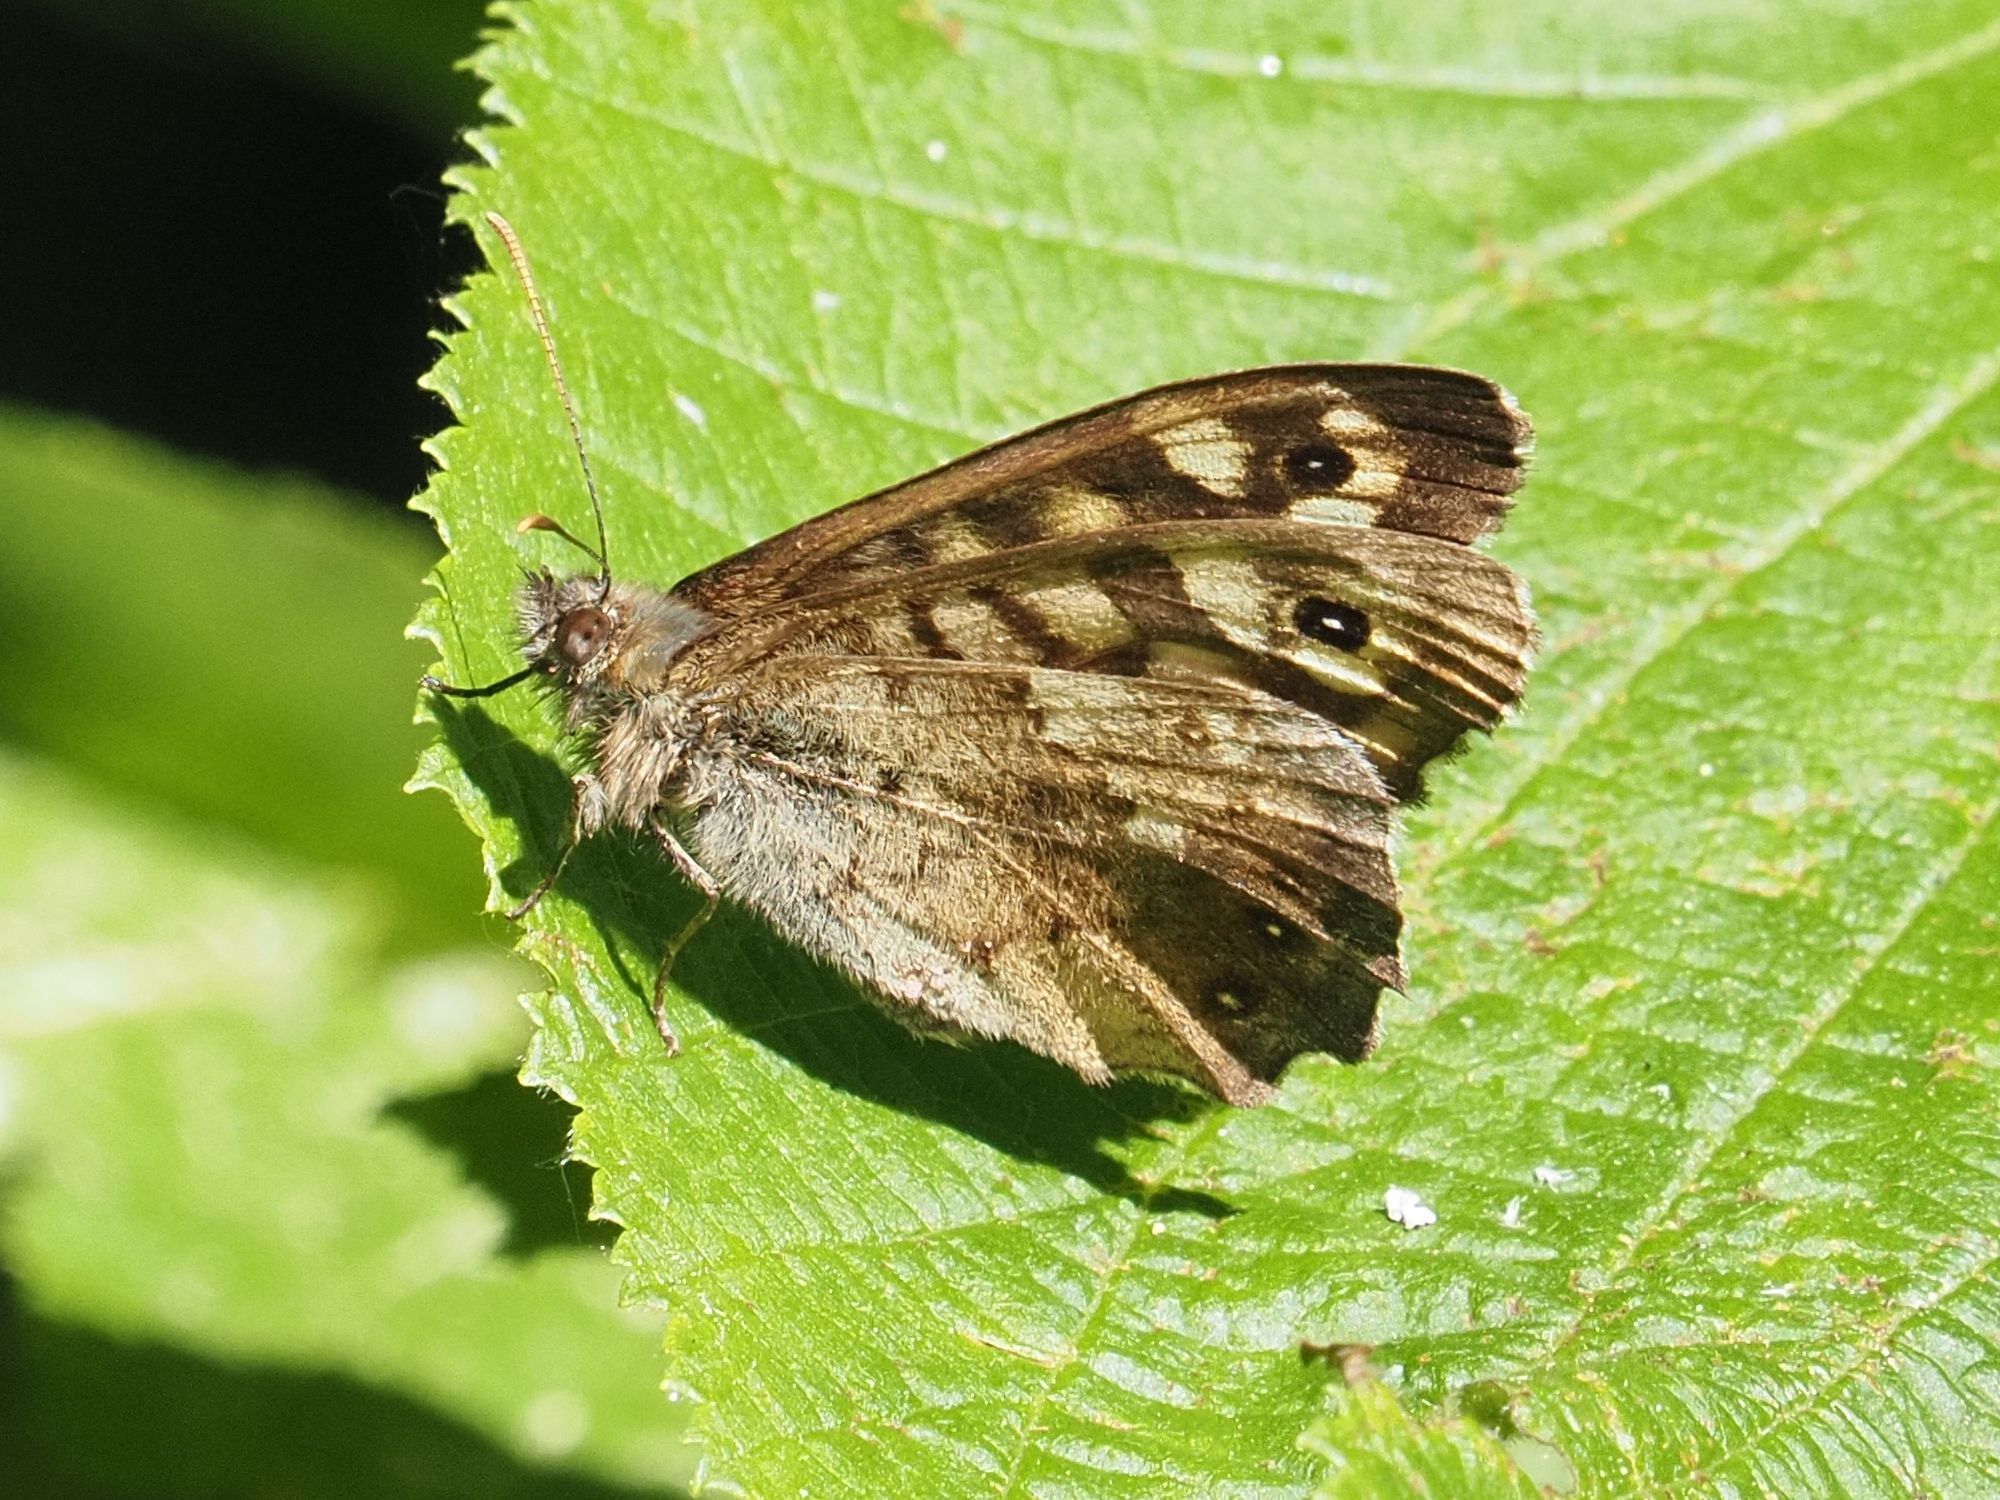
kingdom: Animalia
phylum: Arthropoda
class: Insecta
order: Lepidoptera
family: Nymphalidae
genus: Pararge
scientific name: Pararge aegeria
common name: Speckled wood
